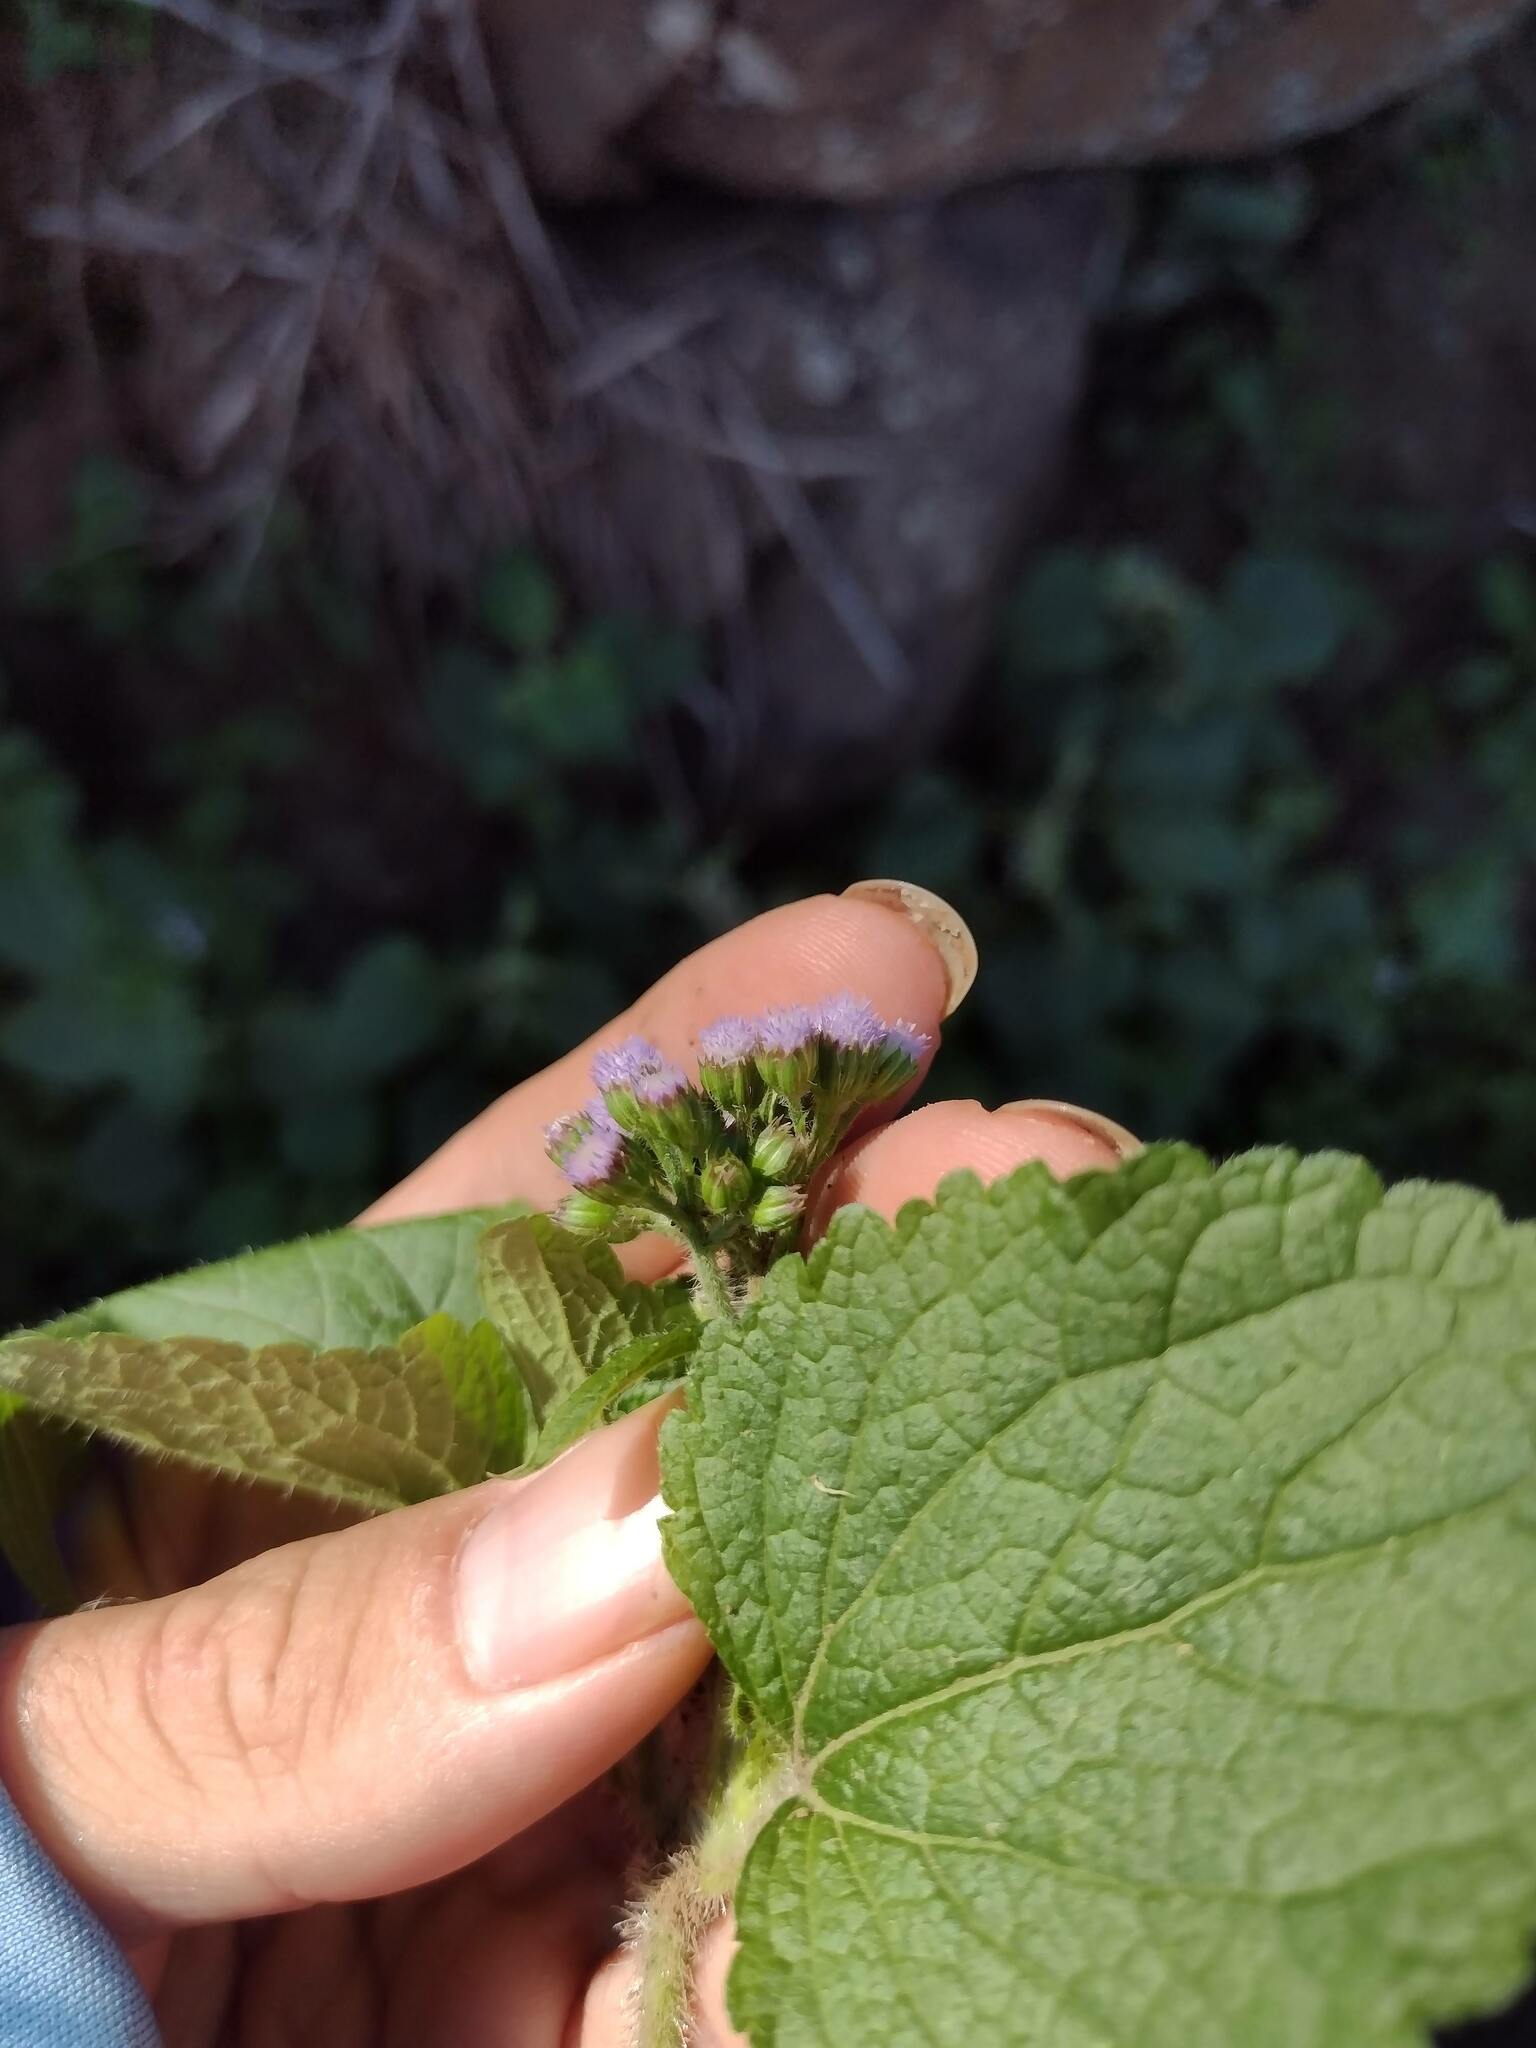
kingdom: Plantae
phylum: Tracheophyta
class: Magnoliopsida
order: Asterales
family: Asteraceae
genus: Ageratum
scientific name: Ageratum conyzoides
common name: Tropical whiteweed
